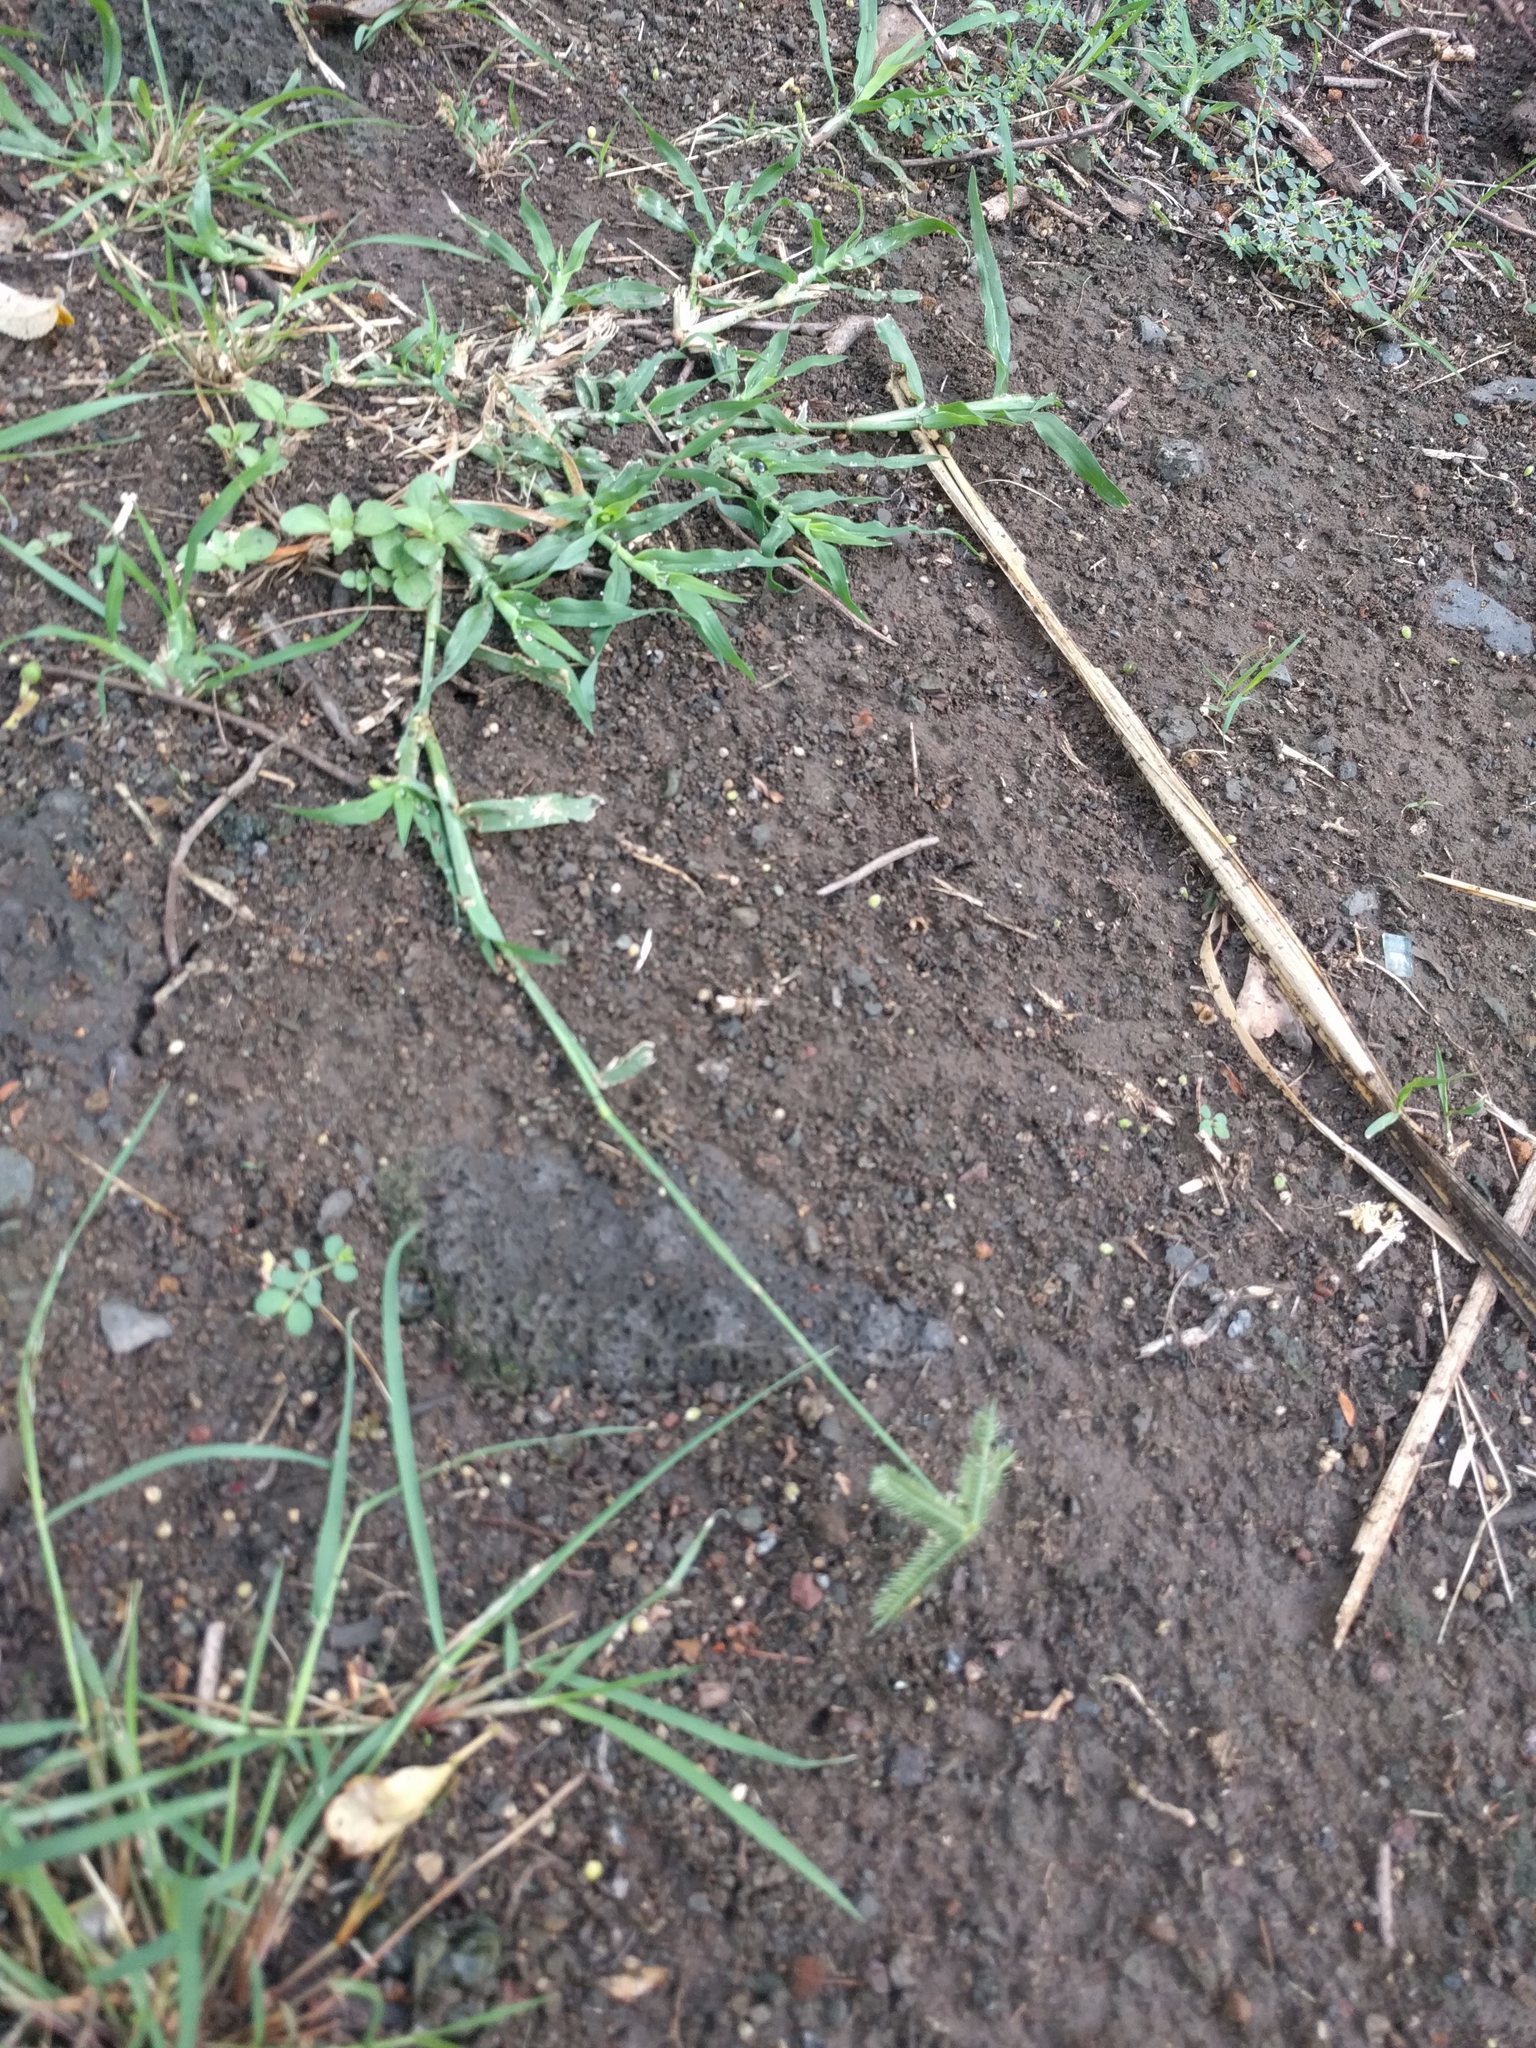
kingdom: Plantae
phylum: Tracheophyta
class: Liliopsida
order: Poales
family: Poaceae
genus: Dactyloctenium
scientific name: Dactyloctenium aegyptium
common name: Egyptian grass
